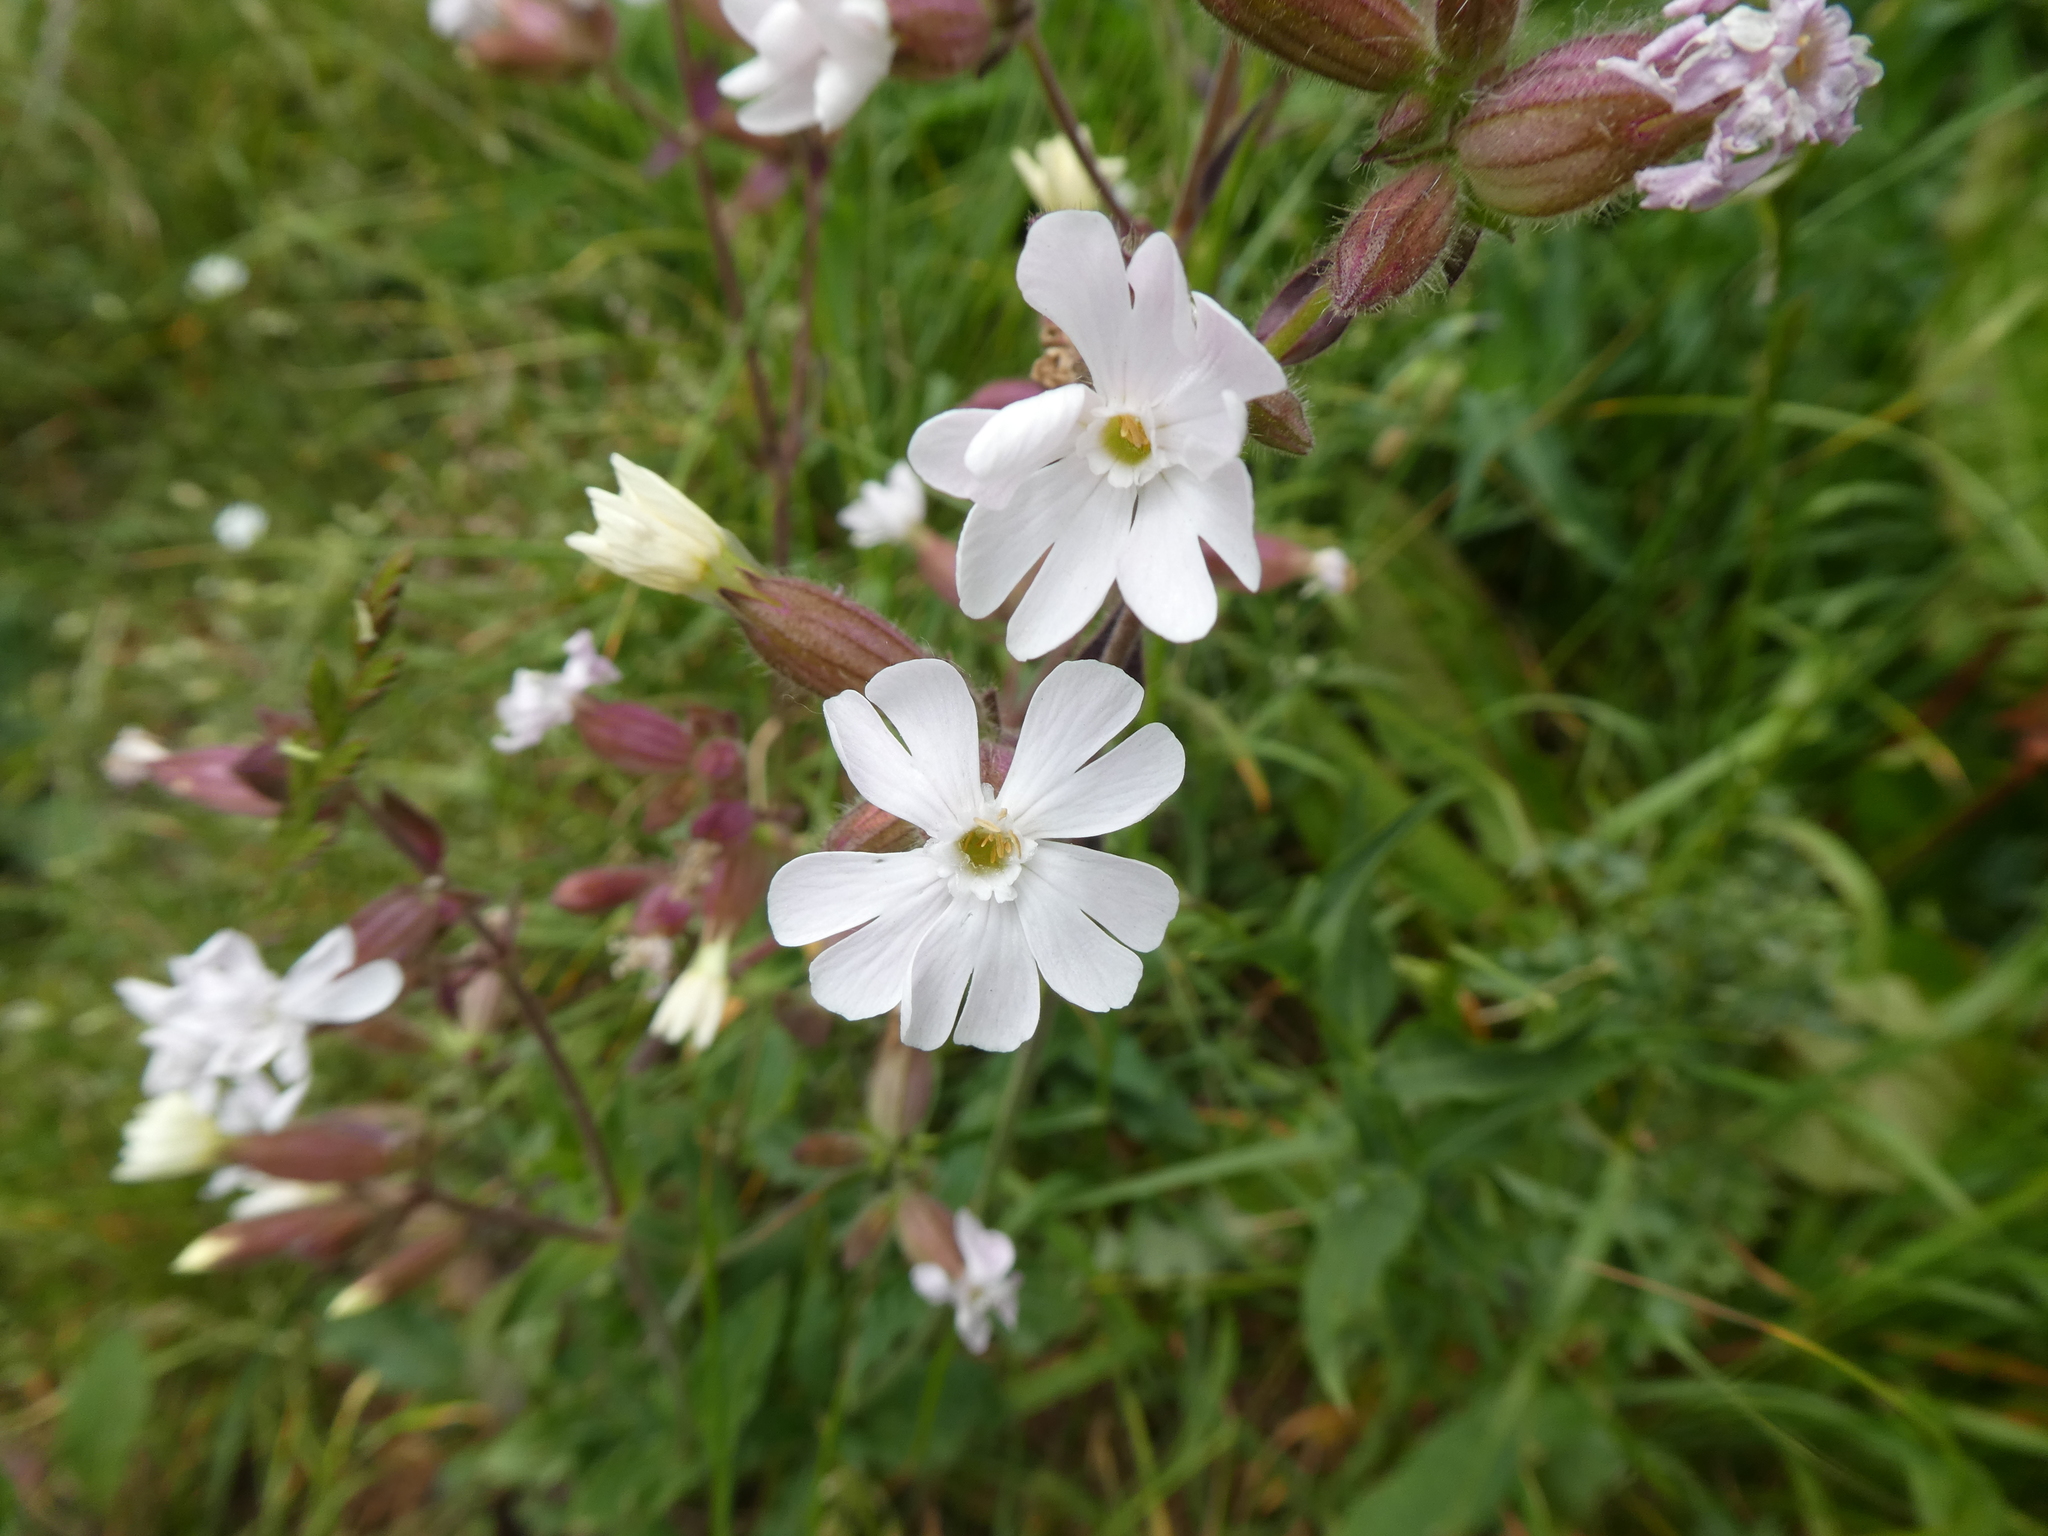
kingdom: Plantae
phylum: Tracheophyta
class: Magnoliopsida
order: Caryophyllales
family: Caryophyllaceae
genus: Silene
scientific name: Silene latifolia
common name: White campion
